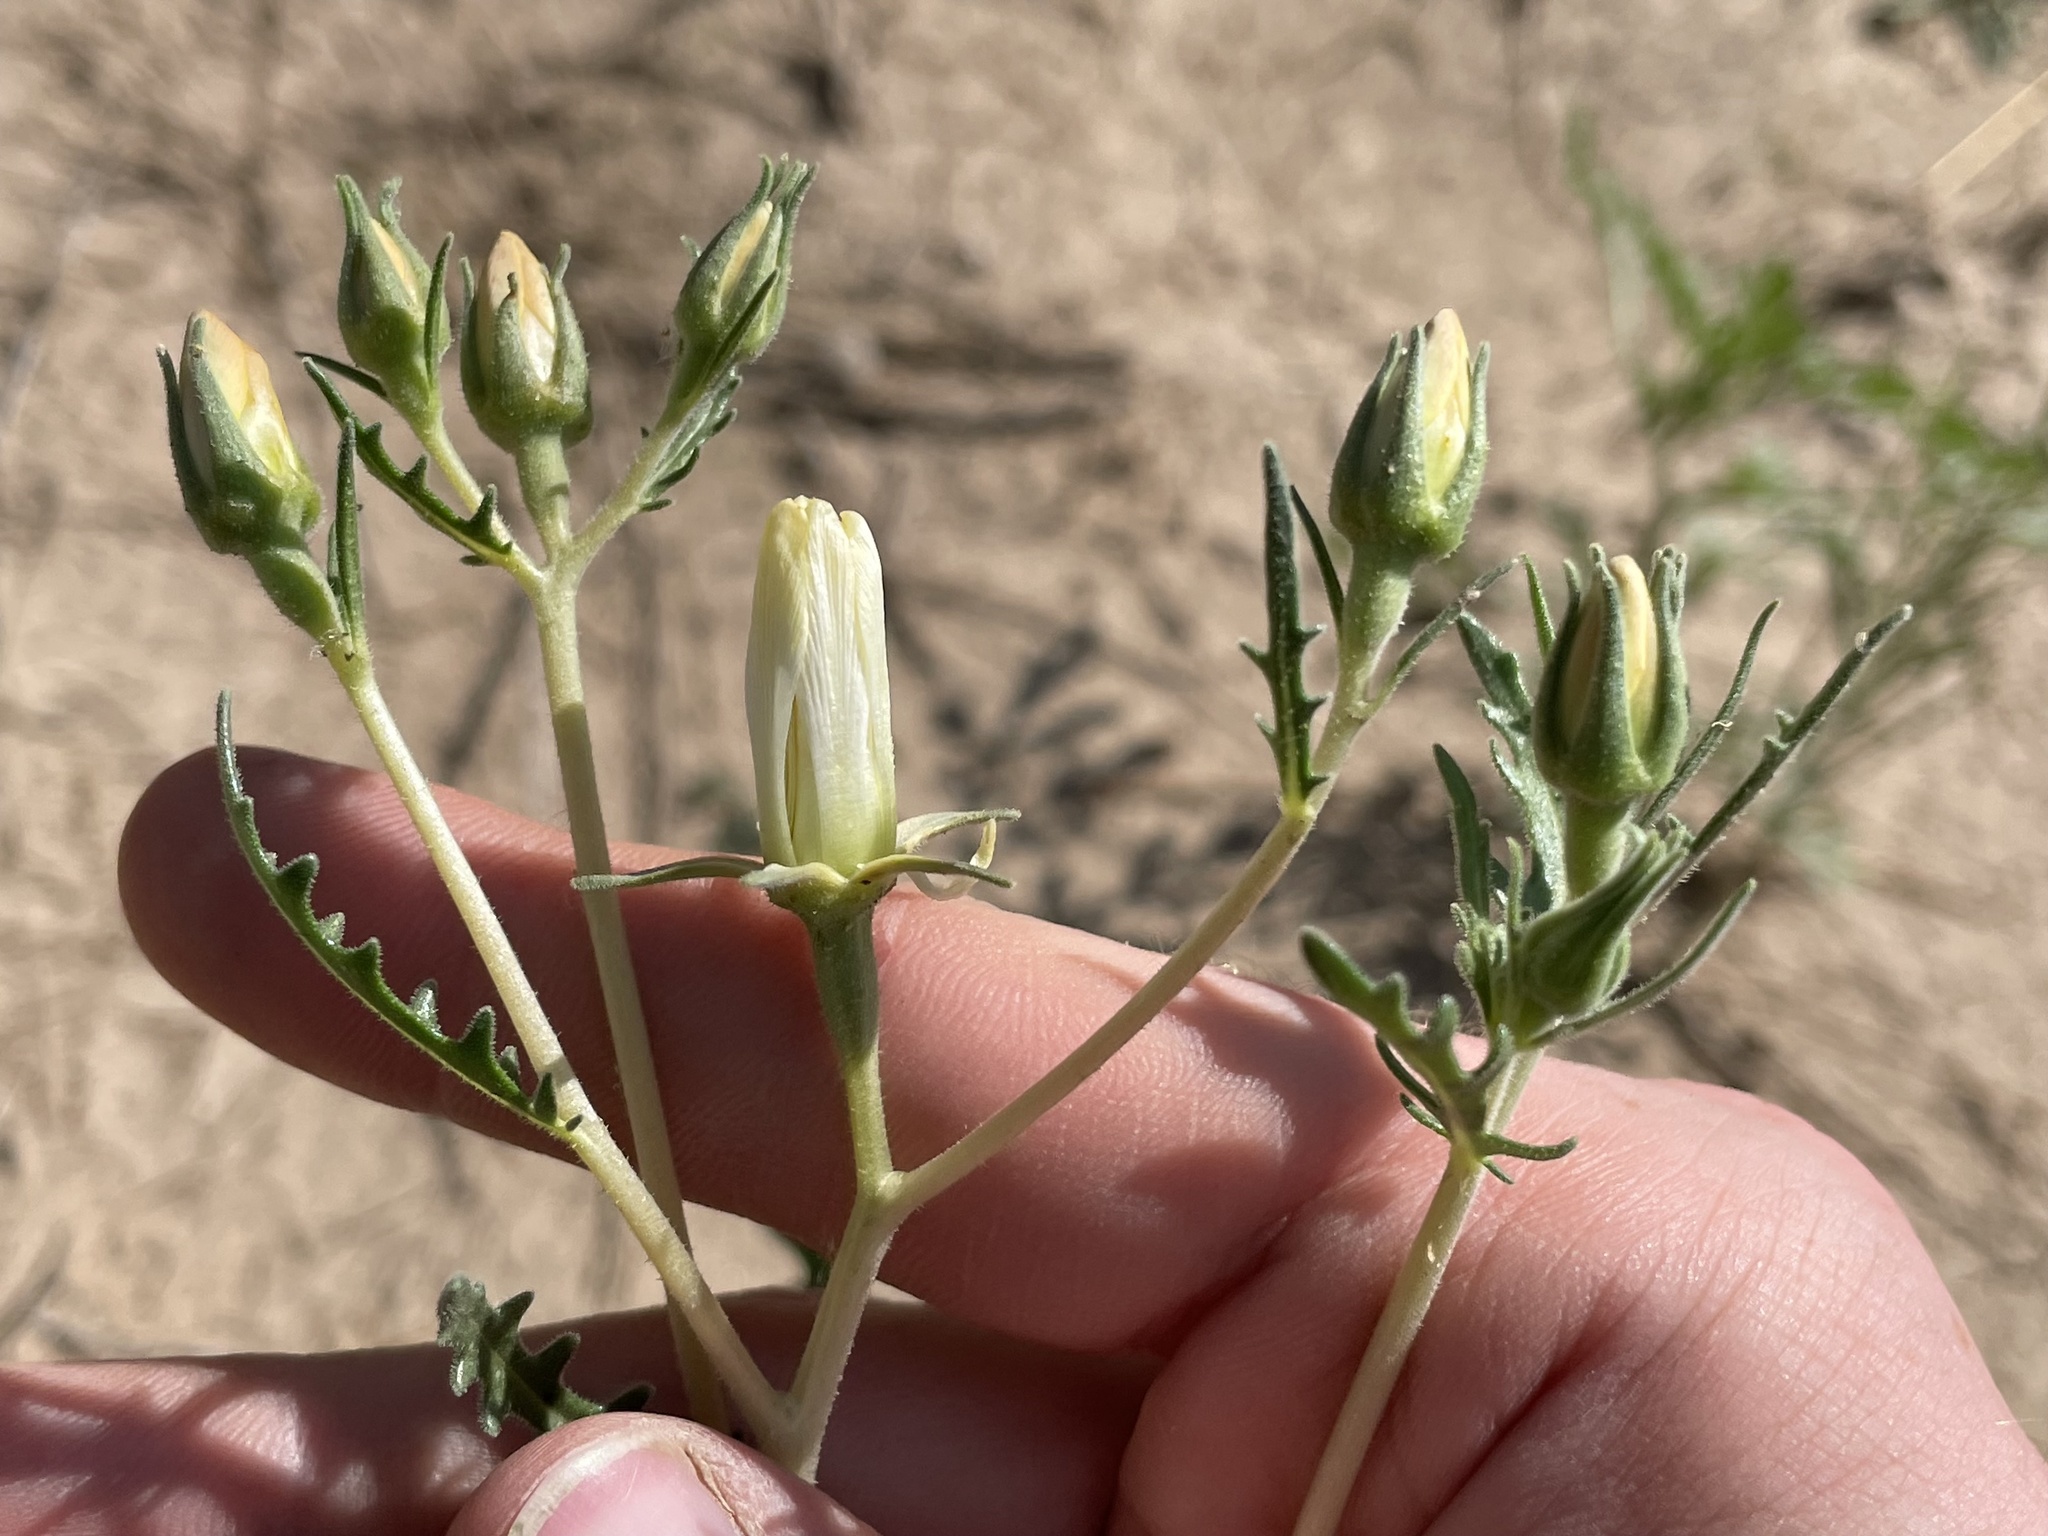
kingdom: Plantae
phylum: Tracheophyta
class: Magnoliopsida
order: Cornales
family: Loasaceae
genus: Mentzelia
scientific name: Mentzelia procera
